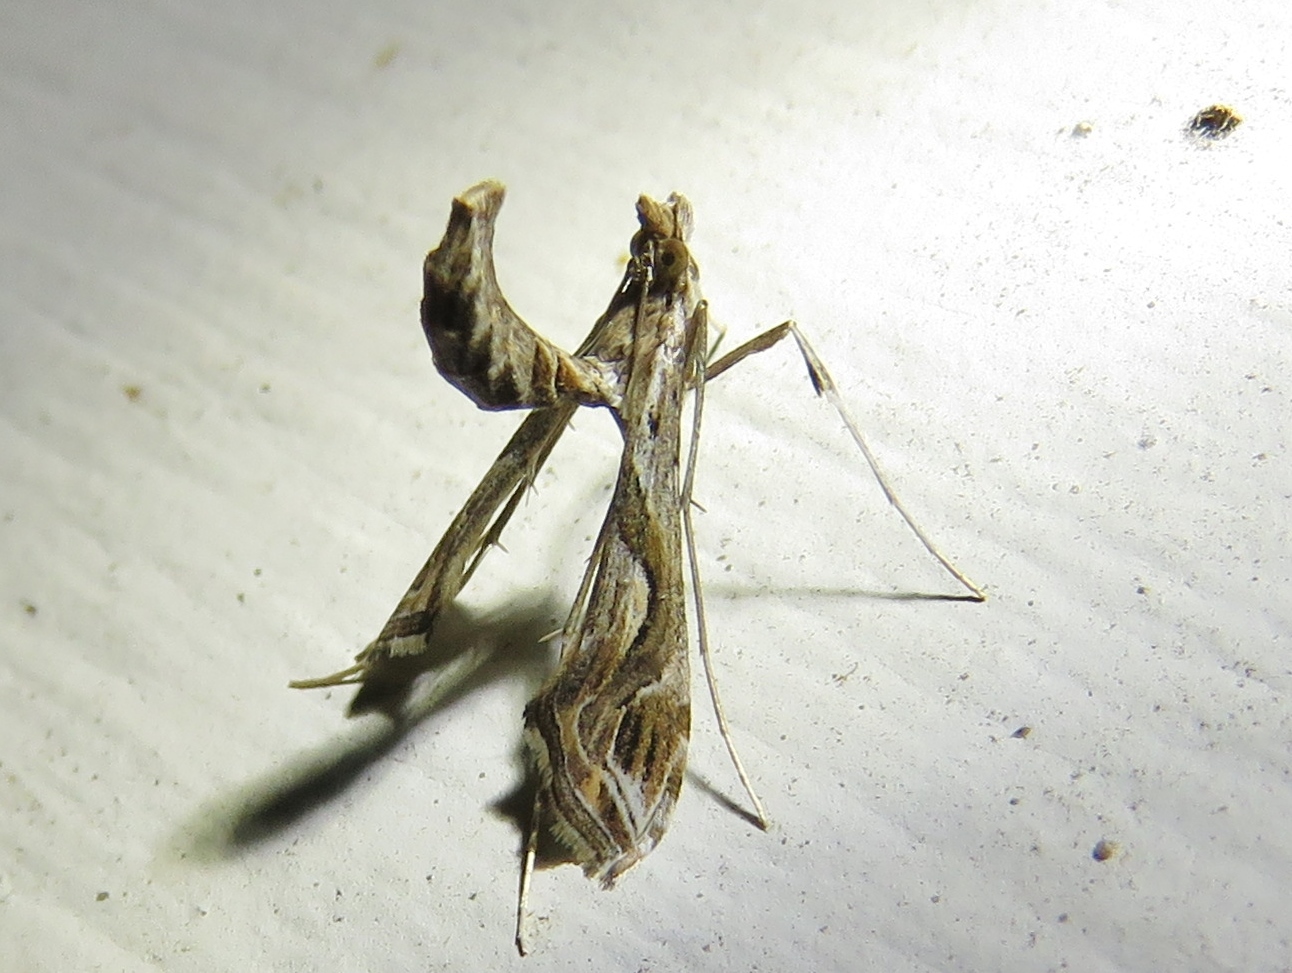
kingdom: Animalia
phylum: Arthropoda
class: Insecta
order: Lepidoptera
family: Crambidae
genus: Lineodes
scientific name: Lineodes integra
